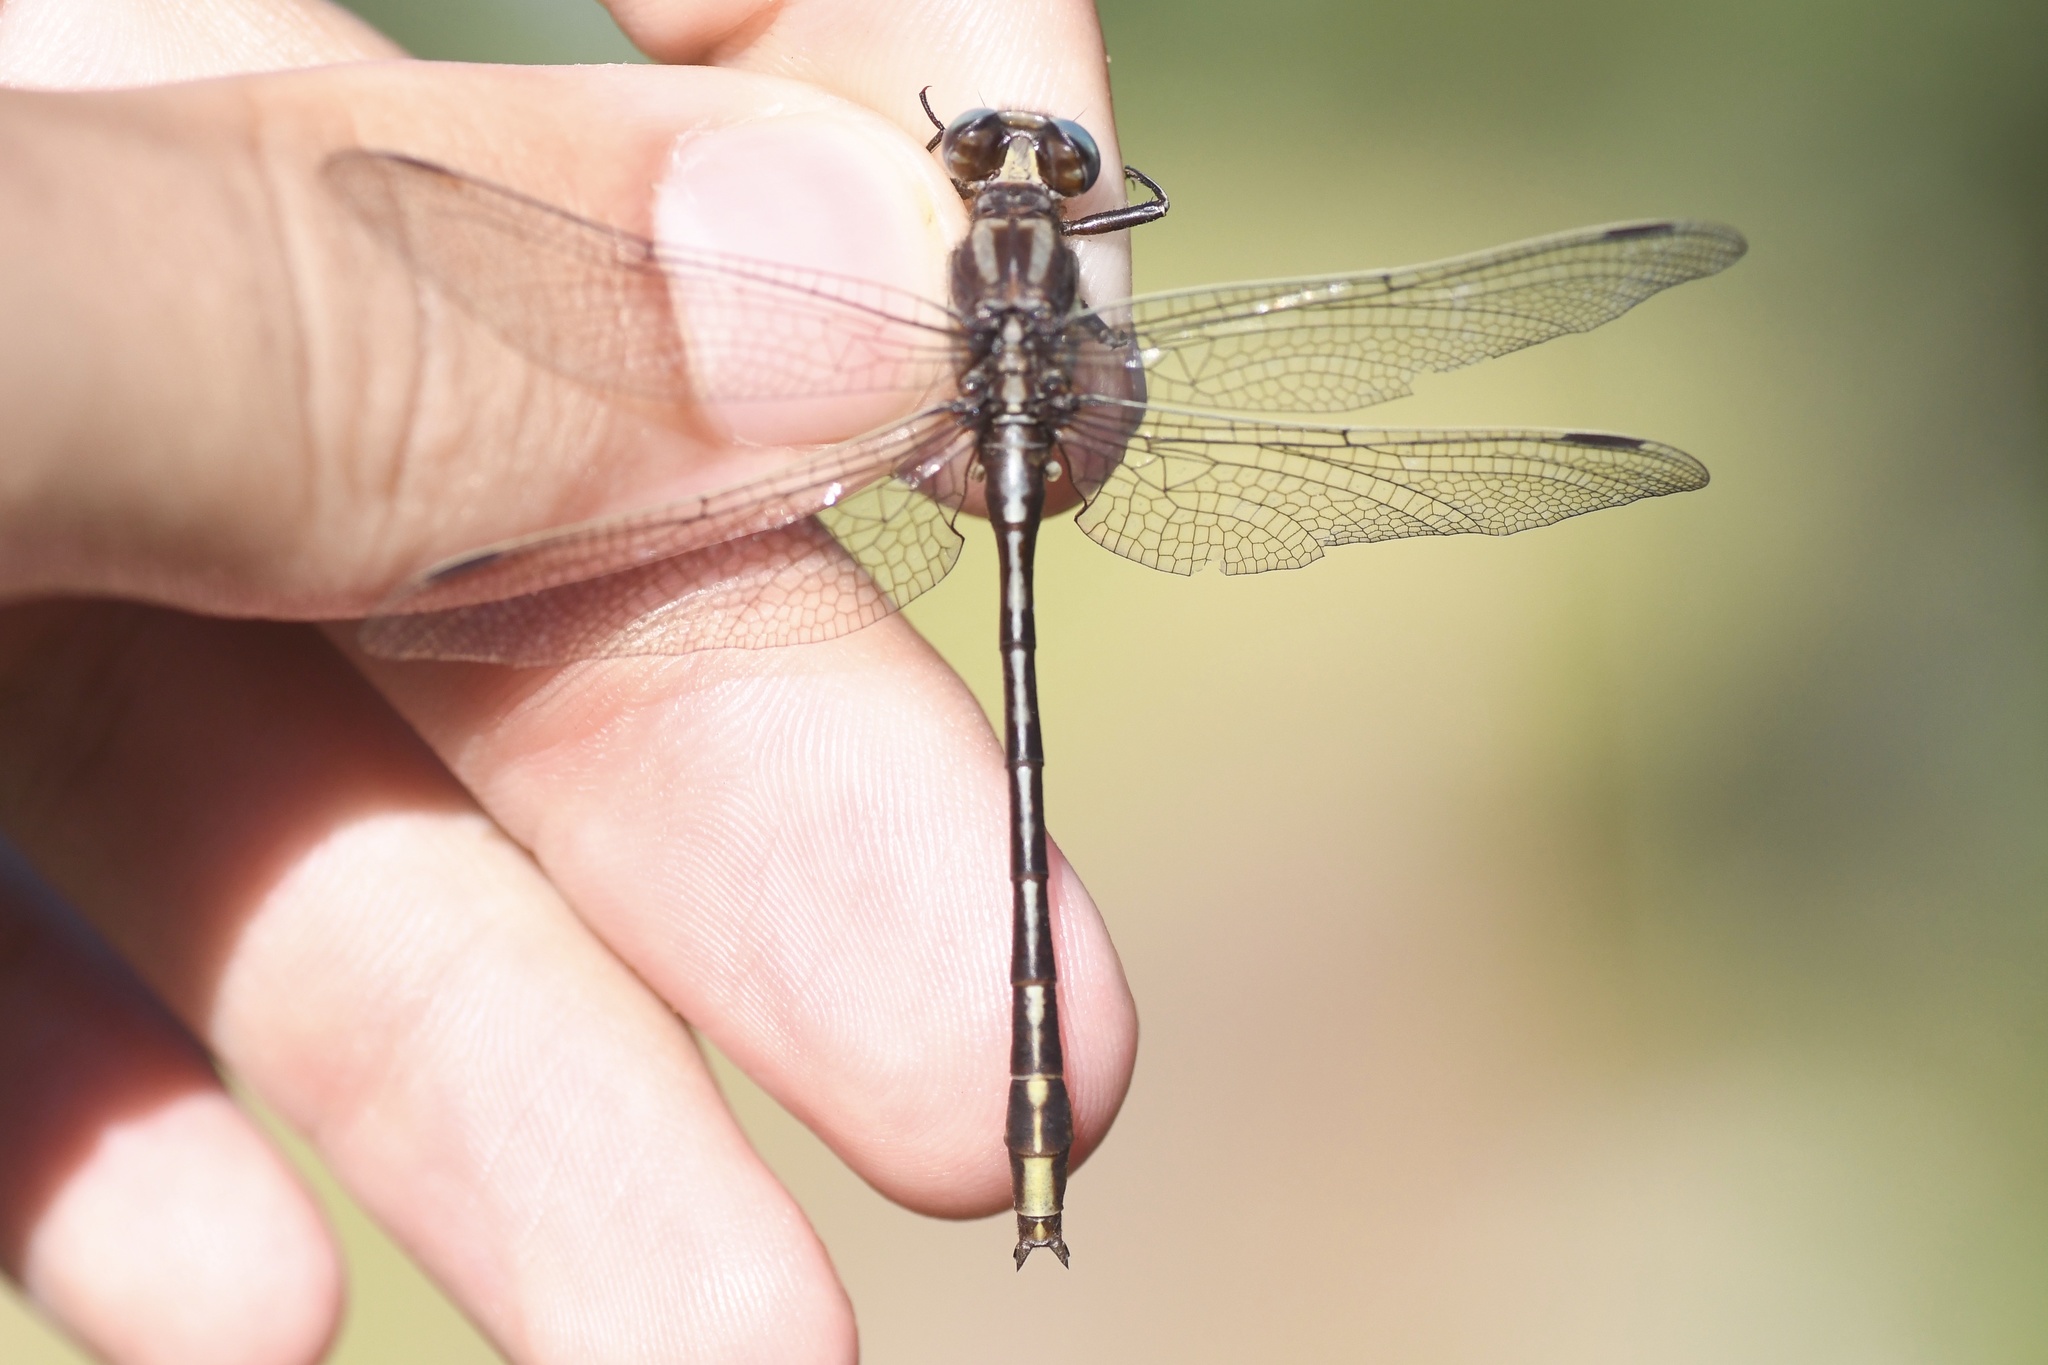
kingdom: Animalia
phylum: Arthropoda
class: Insecta
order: Odonata
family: Gomphidae
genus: Phanogomphus
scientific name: Phanogomphus exilis
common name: Lancet clubtail
